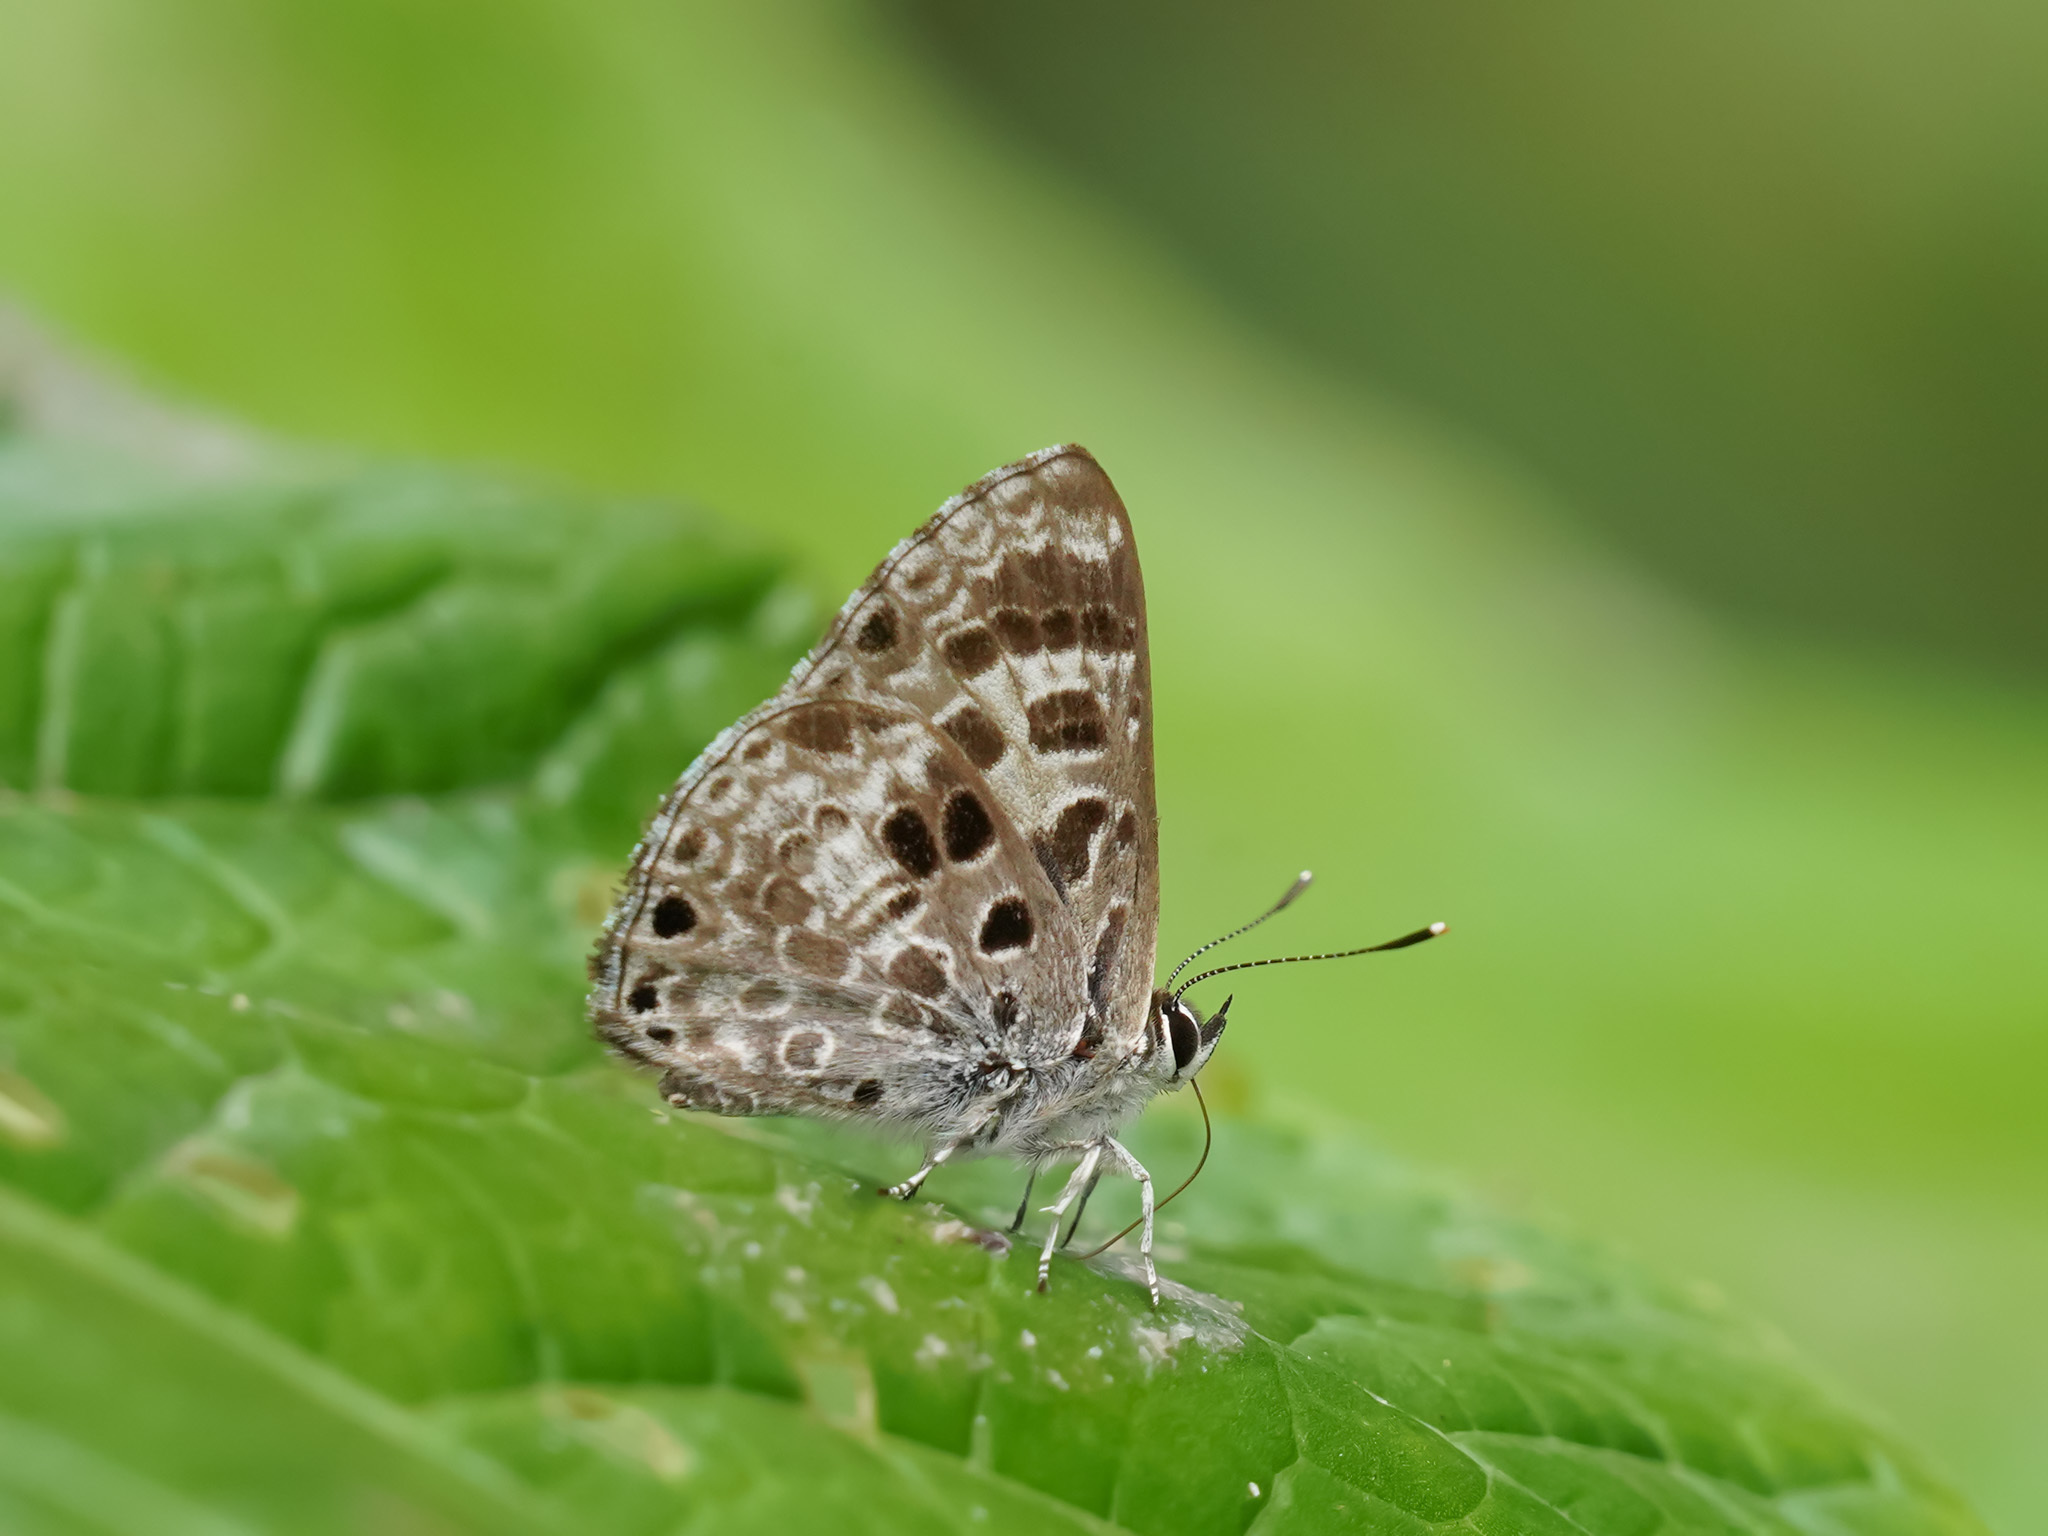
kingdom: Animalia
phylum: Arthropoda
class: Insecta
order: Lepidoptera
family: Lycaenidae
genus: Niphanda
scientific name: Niphanda asialis
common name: White-banded pierrot
